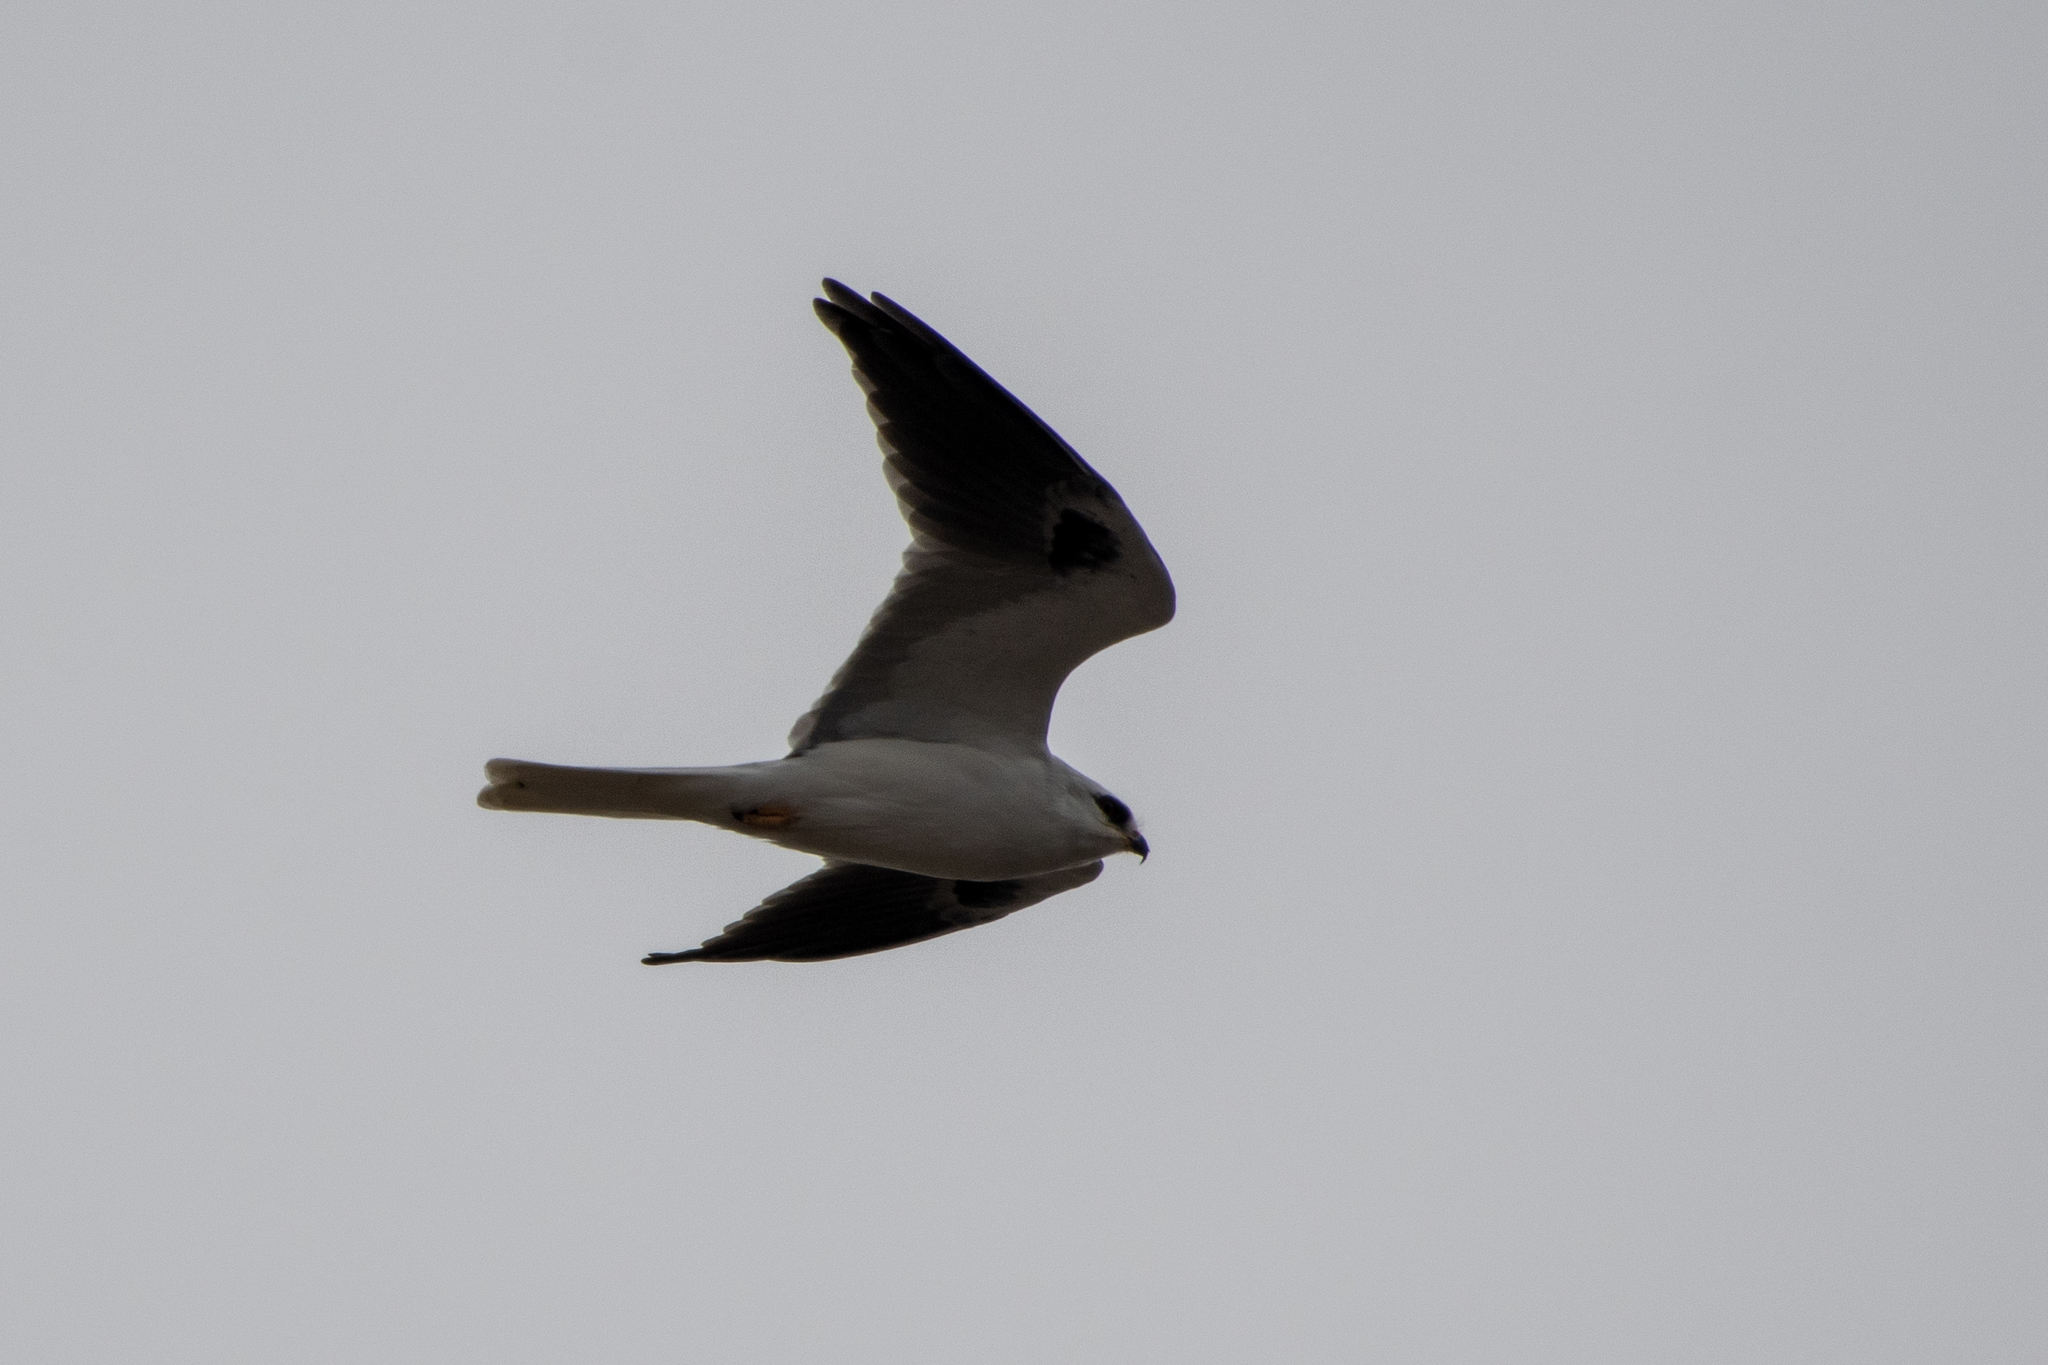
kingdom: Animalia
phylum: Chordata
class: Aves
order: Accipitriformes
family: Accipitridae
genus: Elanus
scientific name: Elanus leucurus
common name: White-tailed kite
